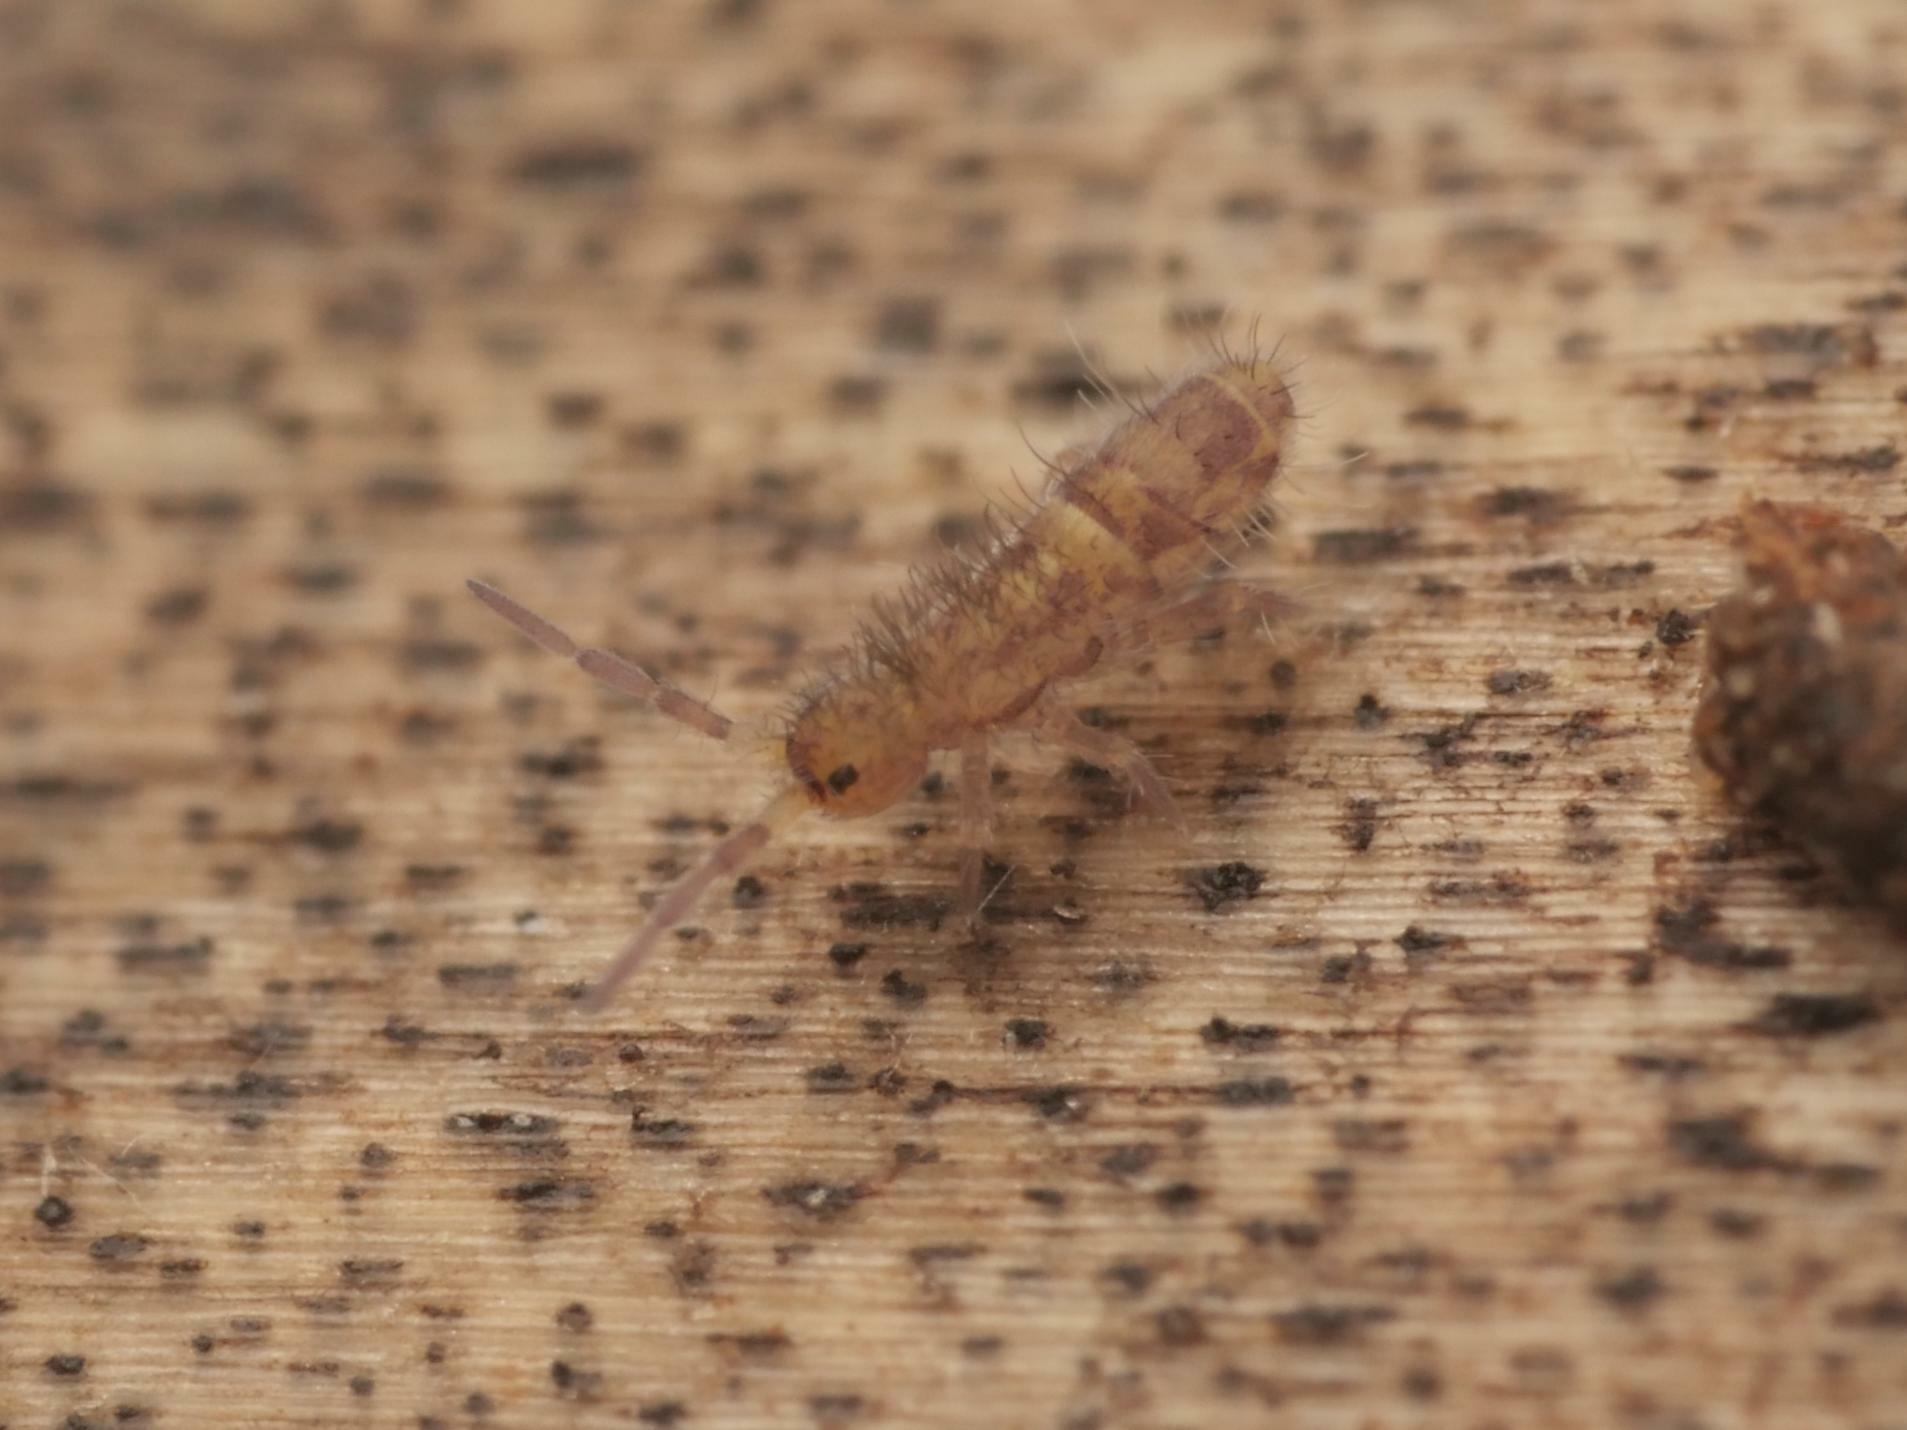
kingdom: Animalia
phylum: Arthropoda
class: Collembola
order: Entomobryomorpha
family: Orchesellidae
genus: Orchesella
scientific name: Orchesella cincta
